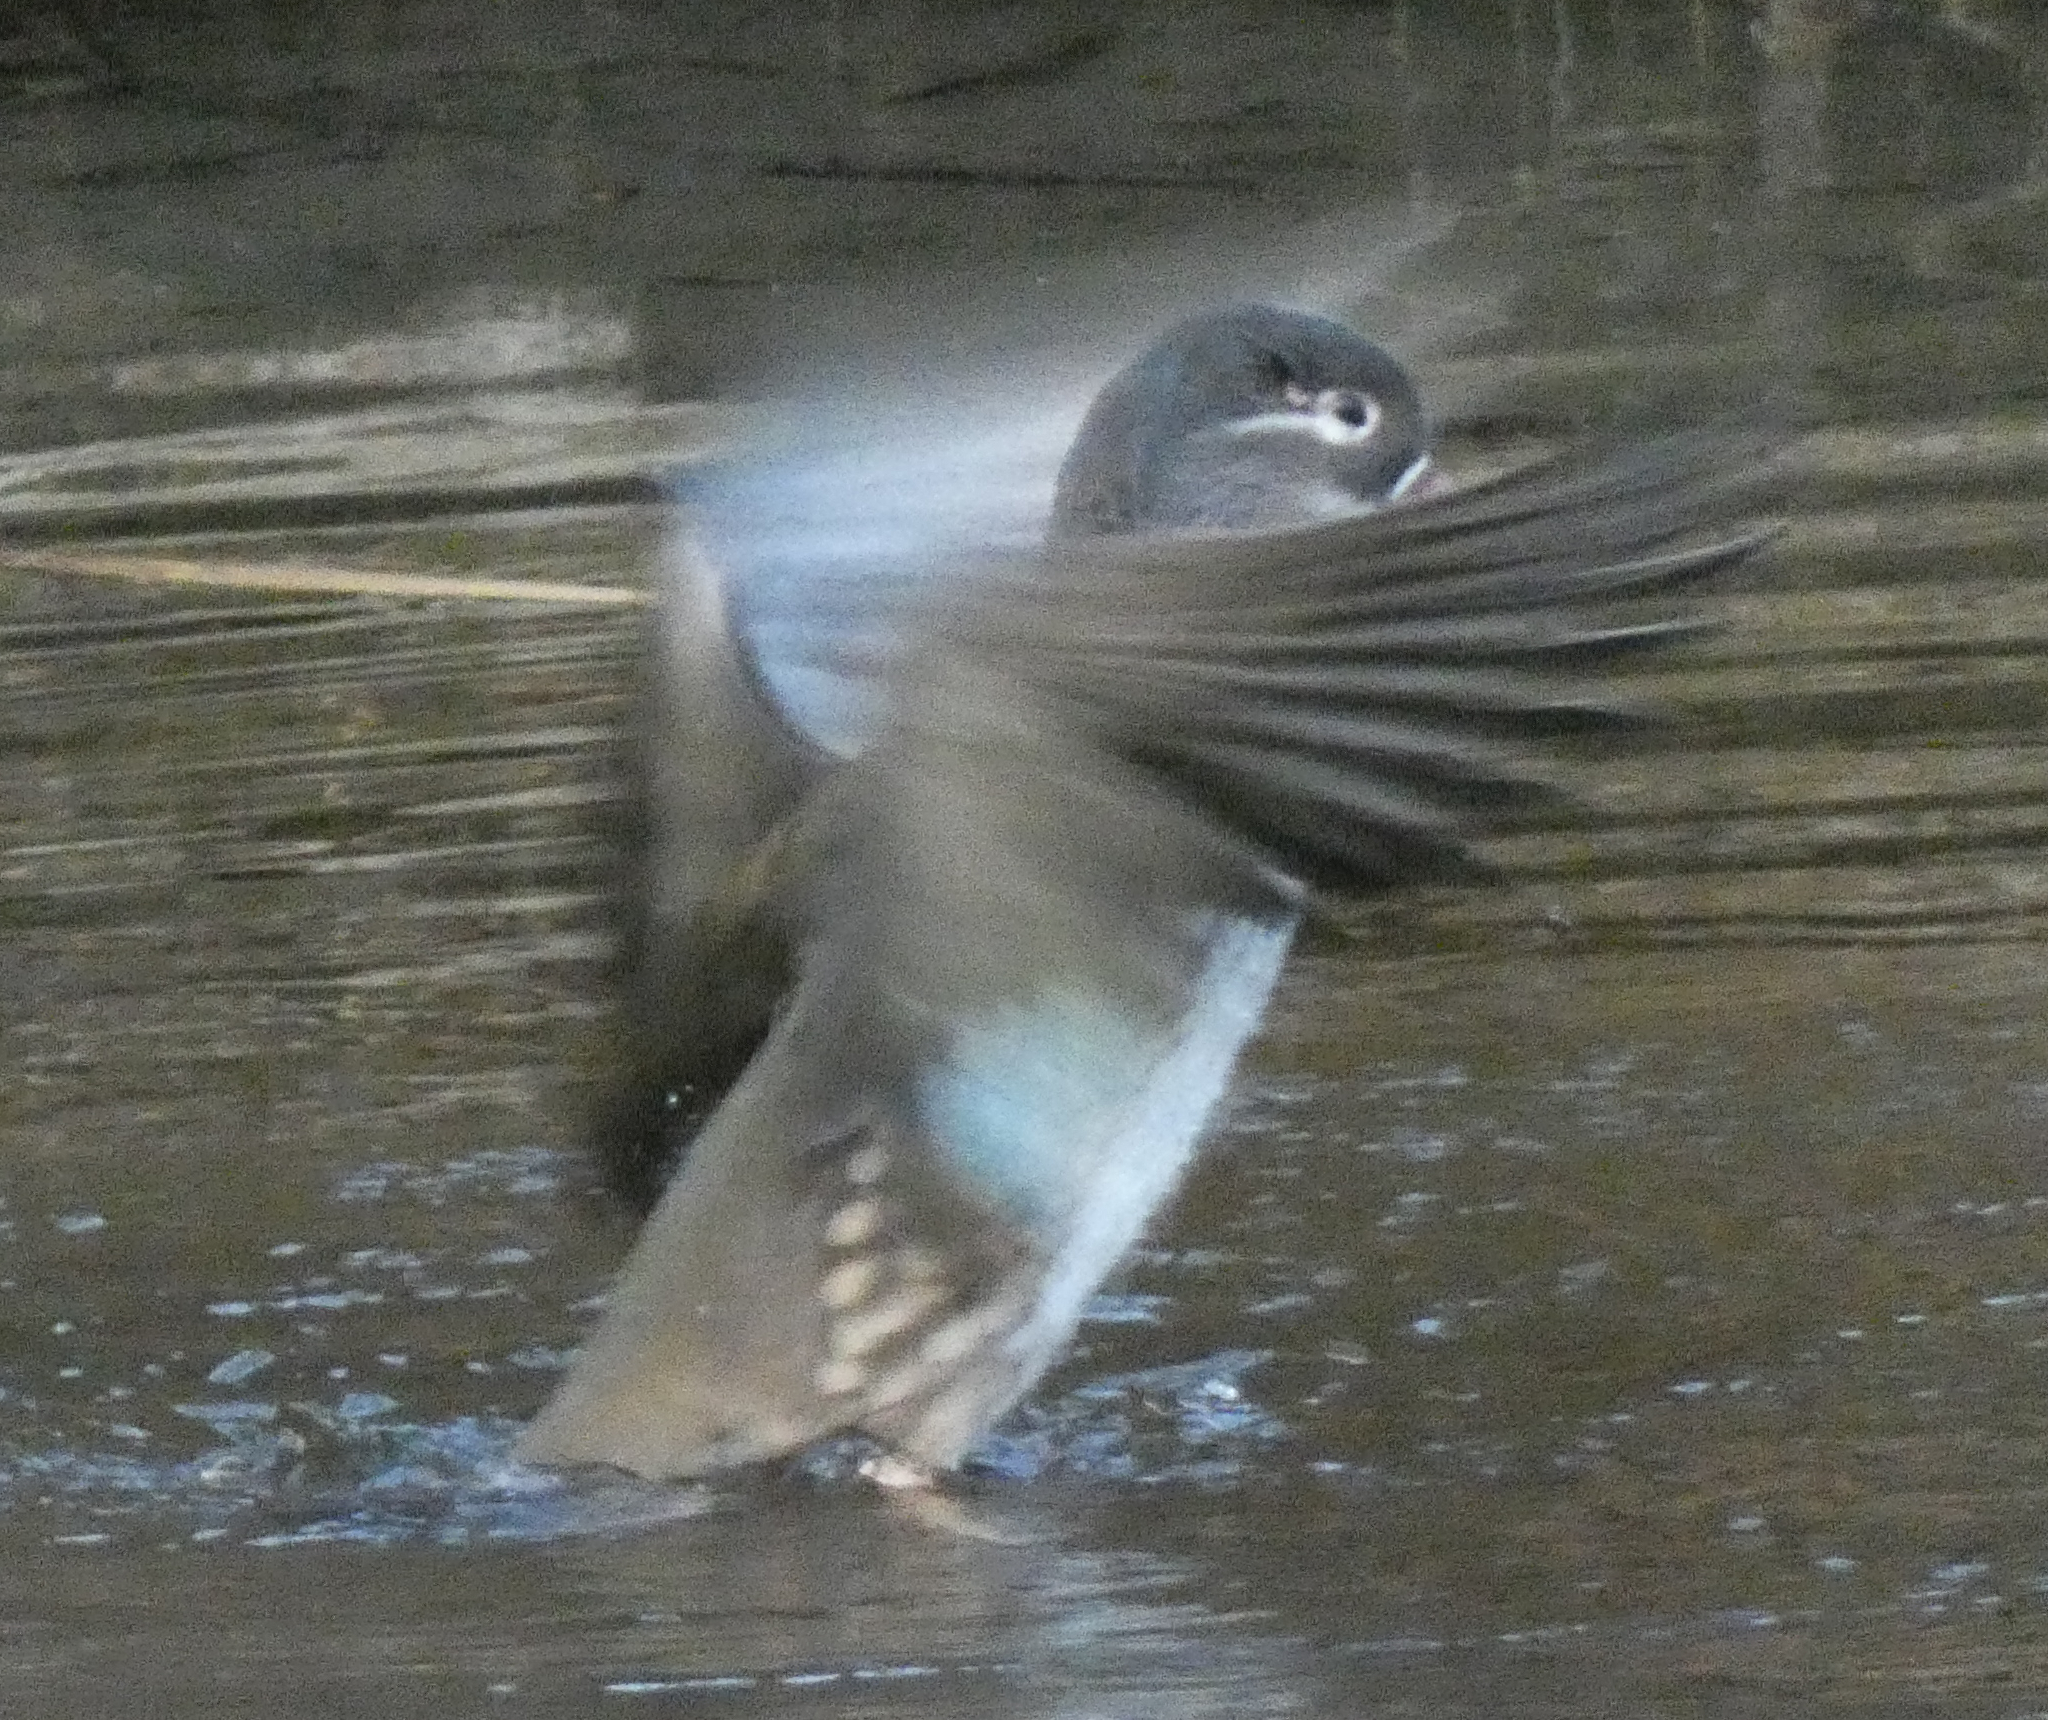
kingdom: Animalia
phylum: Chordata
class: Aves
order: Anseriformes
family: Anatidae
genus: Aix
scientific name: Aix galericulata
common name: Mandarin duck
